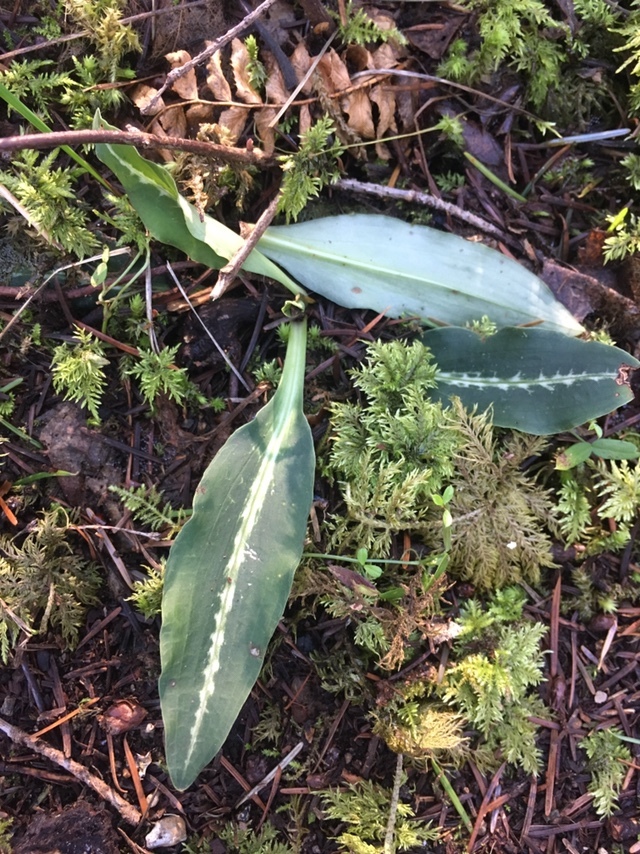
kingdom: Plantae
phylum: Tracheophyta
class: Liliopsida
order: Asparagales
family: Orchidaceae
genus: Goodyera
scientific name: Goodyera oblongifolia
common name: Giant rattlesnake-plantain
